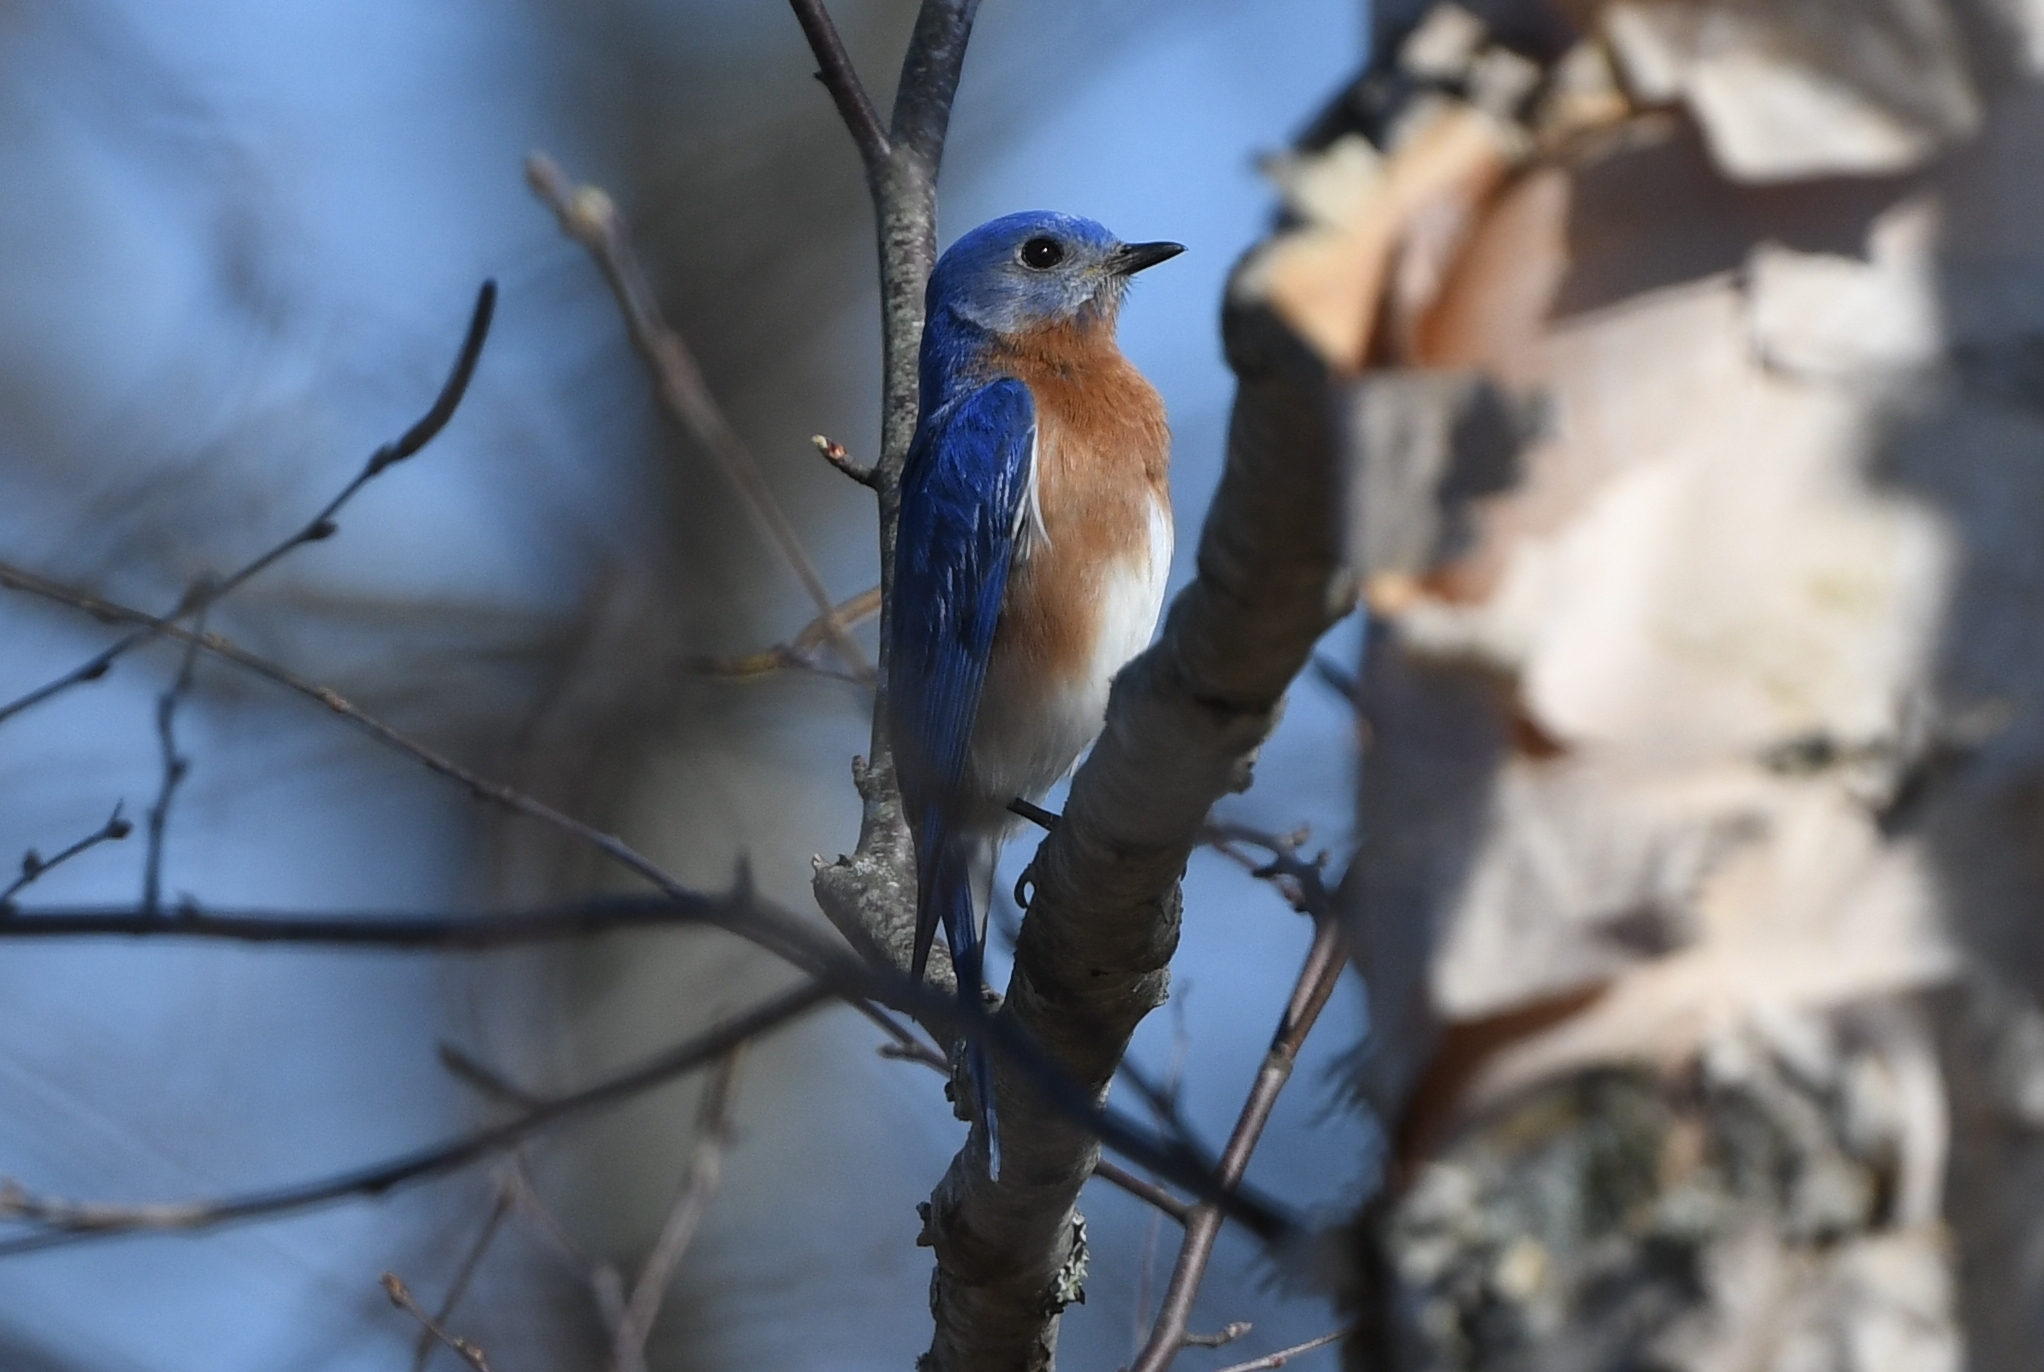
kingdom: Animalia
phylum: Chordata
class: Aves
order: Passeriformes
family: Turdidae
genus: Sialia
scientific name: Sialia sialis
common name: Eastern bluebird
